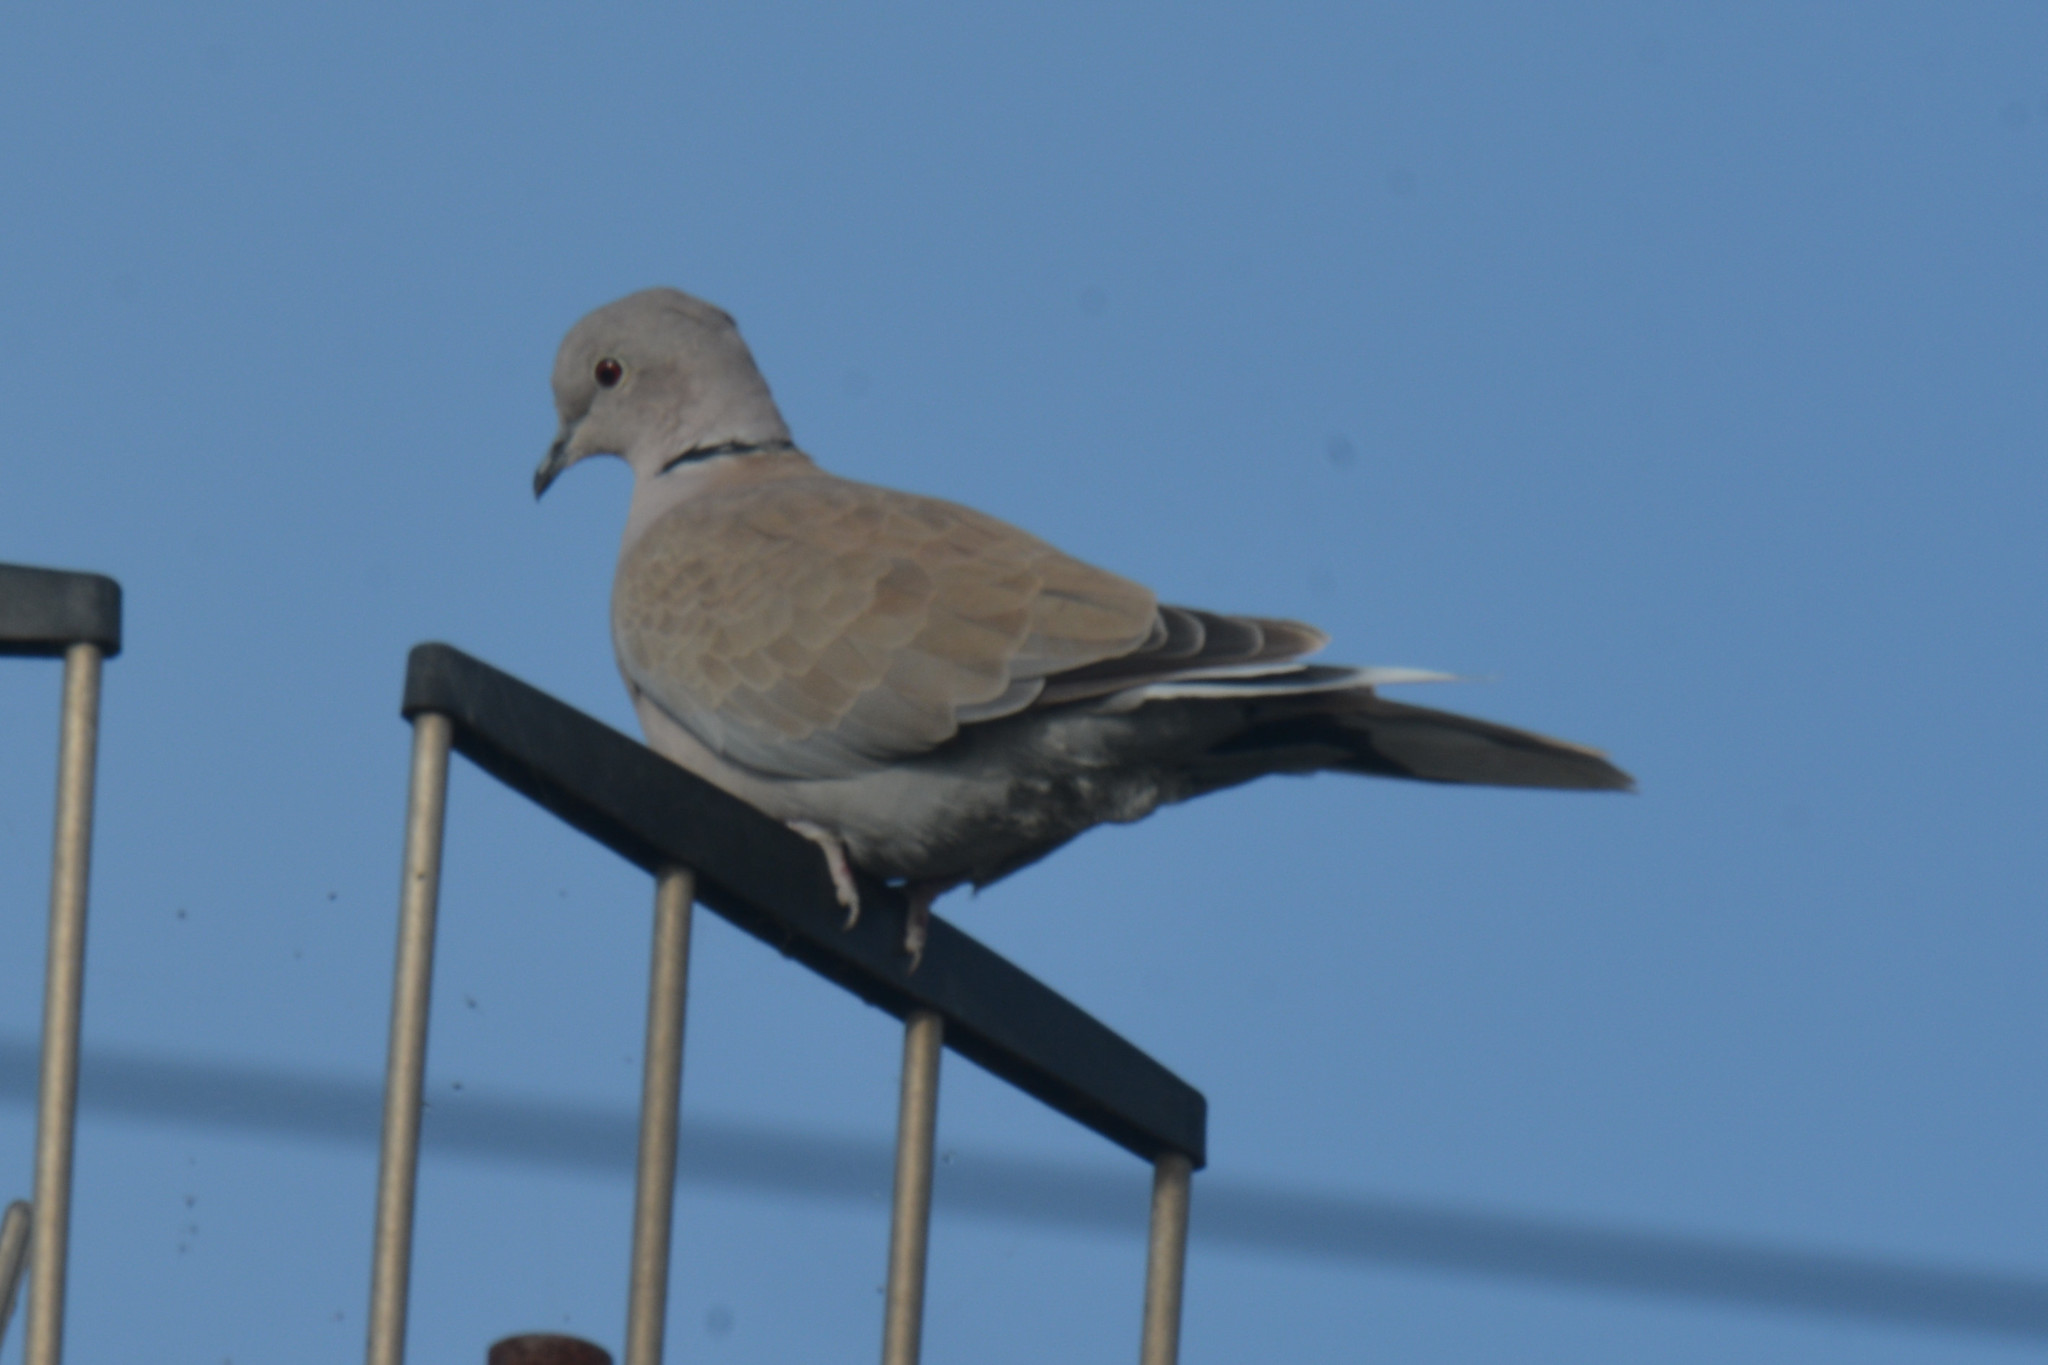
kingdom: Animalia
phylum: Chordata
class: Aves
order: Columbiformes
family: Columbidae
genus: Streptopelia
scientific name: Streptopelia decaocto
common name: Eurasian collared dove
